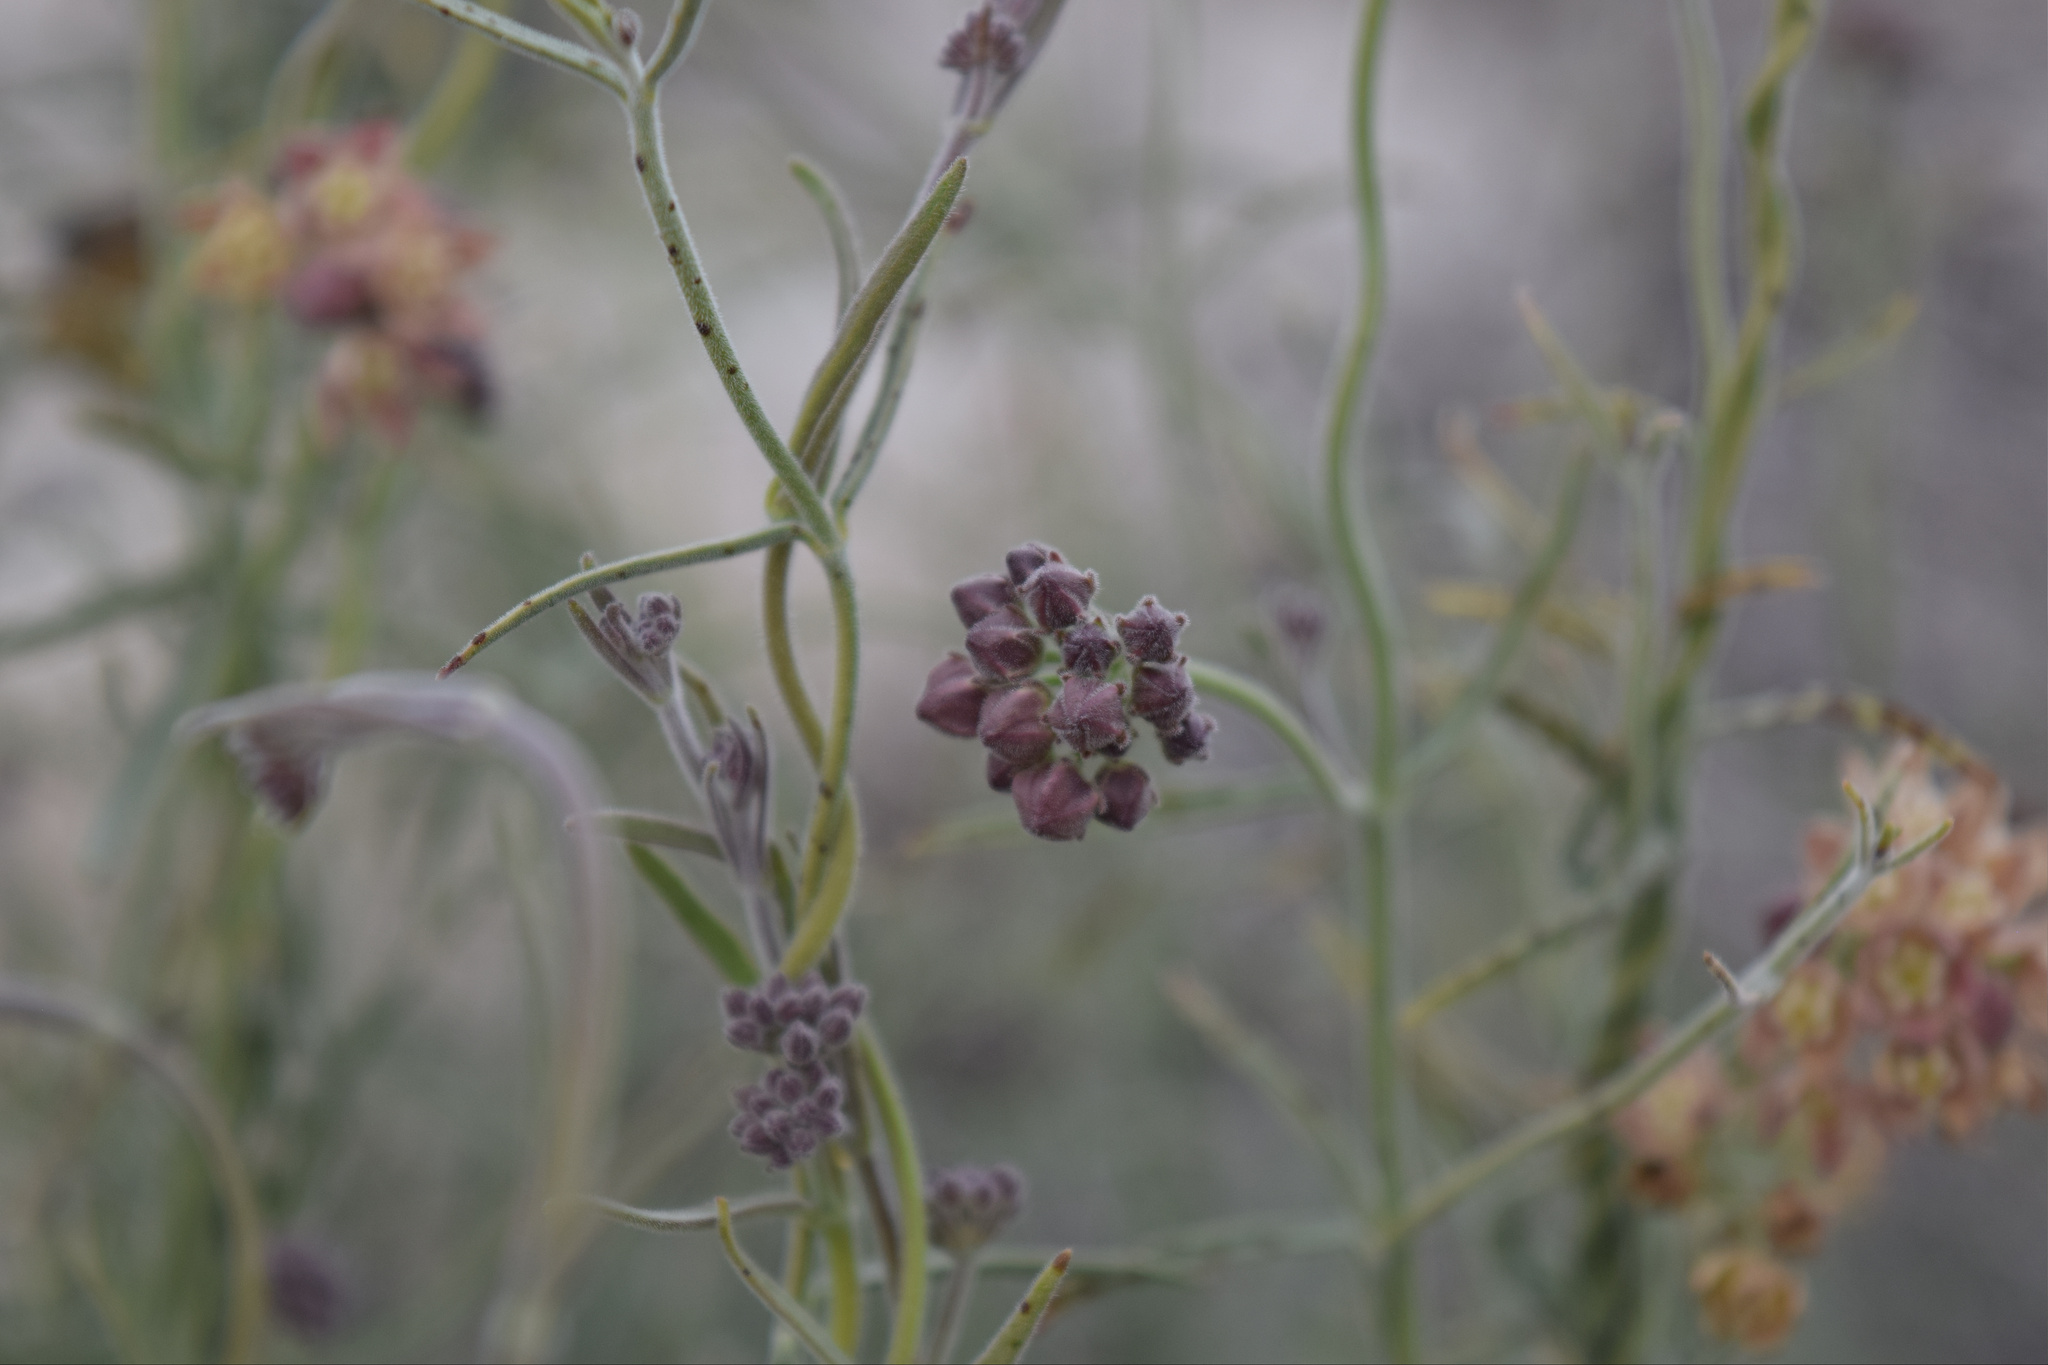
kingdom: Plantae
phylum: Tracheophyta
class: Magnoliopsida
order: Gentianales
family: Apocynaceae
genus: Funastrum
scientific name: Funastrum hirtellum
